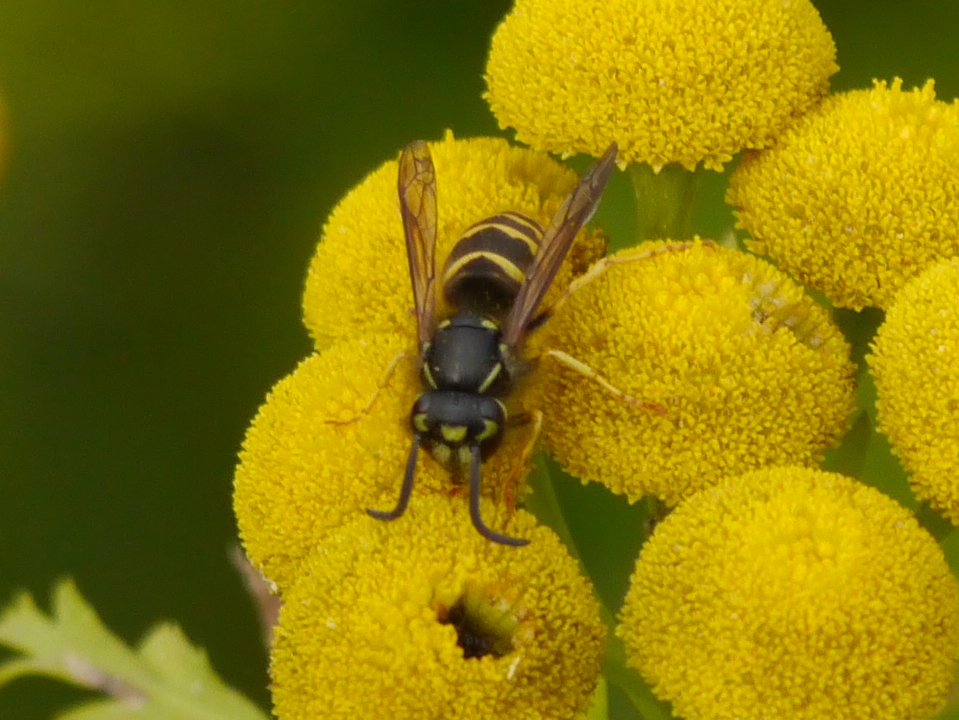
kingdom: Animalia
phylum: Arthropoda
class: Insecta
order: Hymenoptera
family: Vespidae
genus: Vespula
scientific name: Vespula alascensis
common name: Alaska yellowjacket
